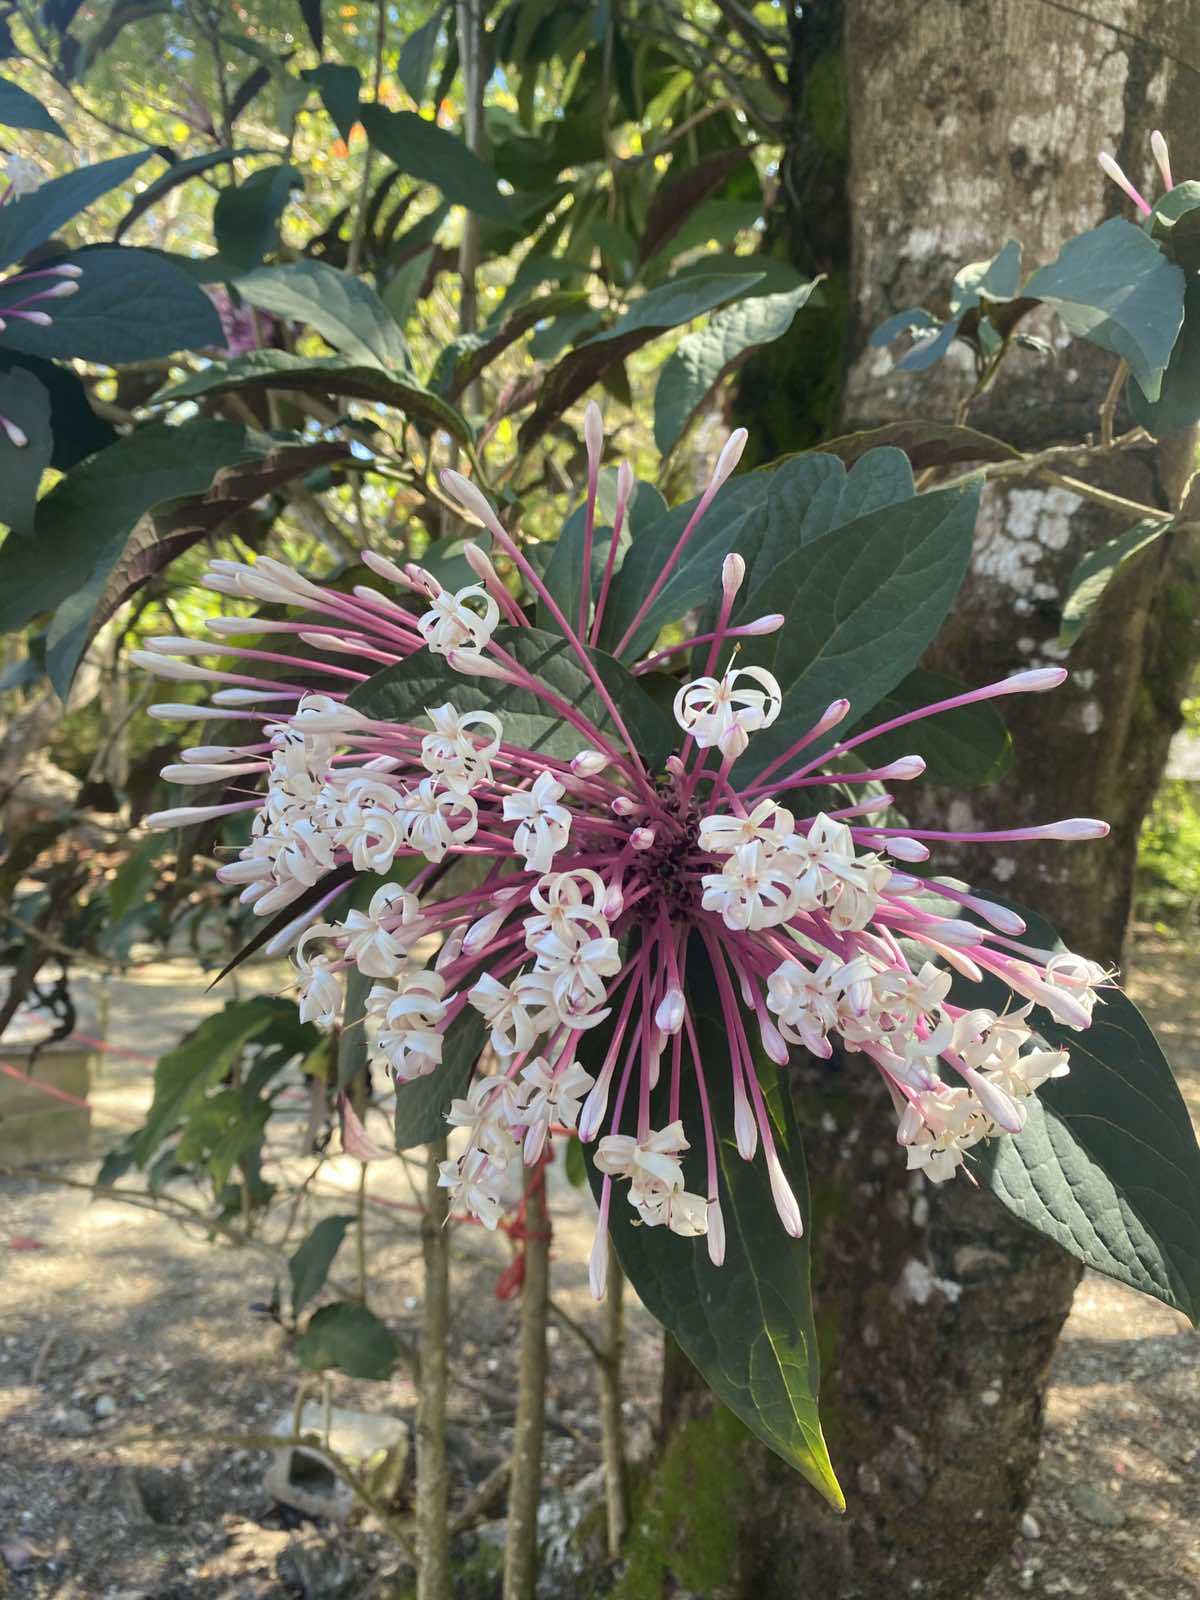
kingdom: Plantae
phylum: Tracheophyta
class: Magnoliopsida
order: Lamiales
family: Lamiaceae
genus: Clerodendrum
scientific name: Clerodendrum quadriloculare
